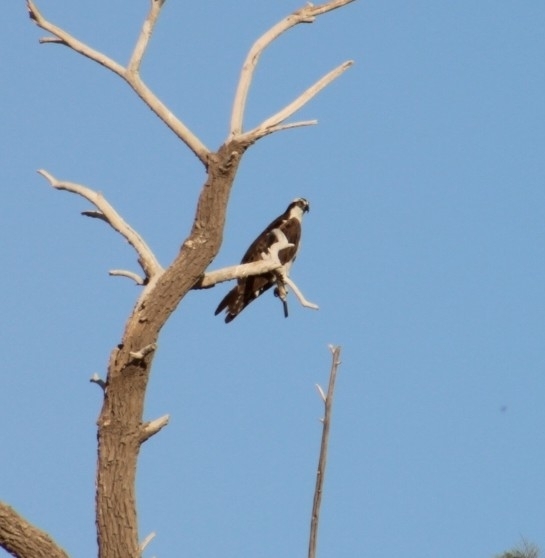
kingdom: Animalia
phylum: Chordata
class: Aves
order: Accipitriformes
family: Pandionidae
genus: Pandion
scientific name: Pandion haliaetus
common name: Osprey
